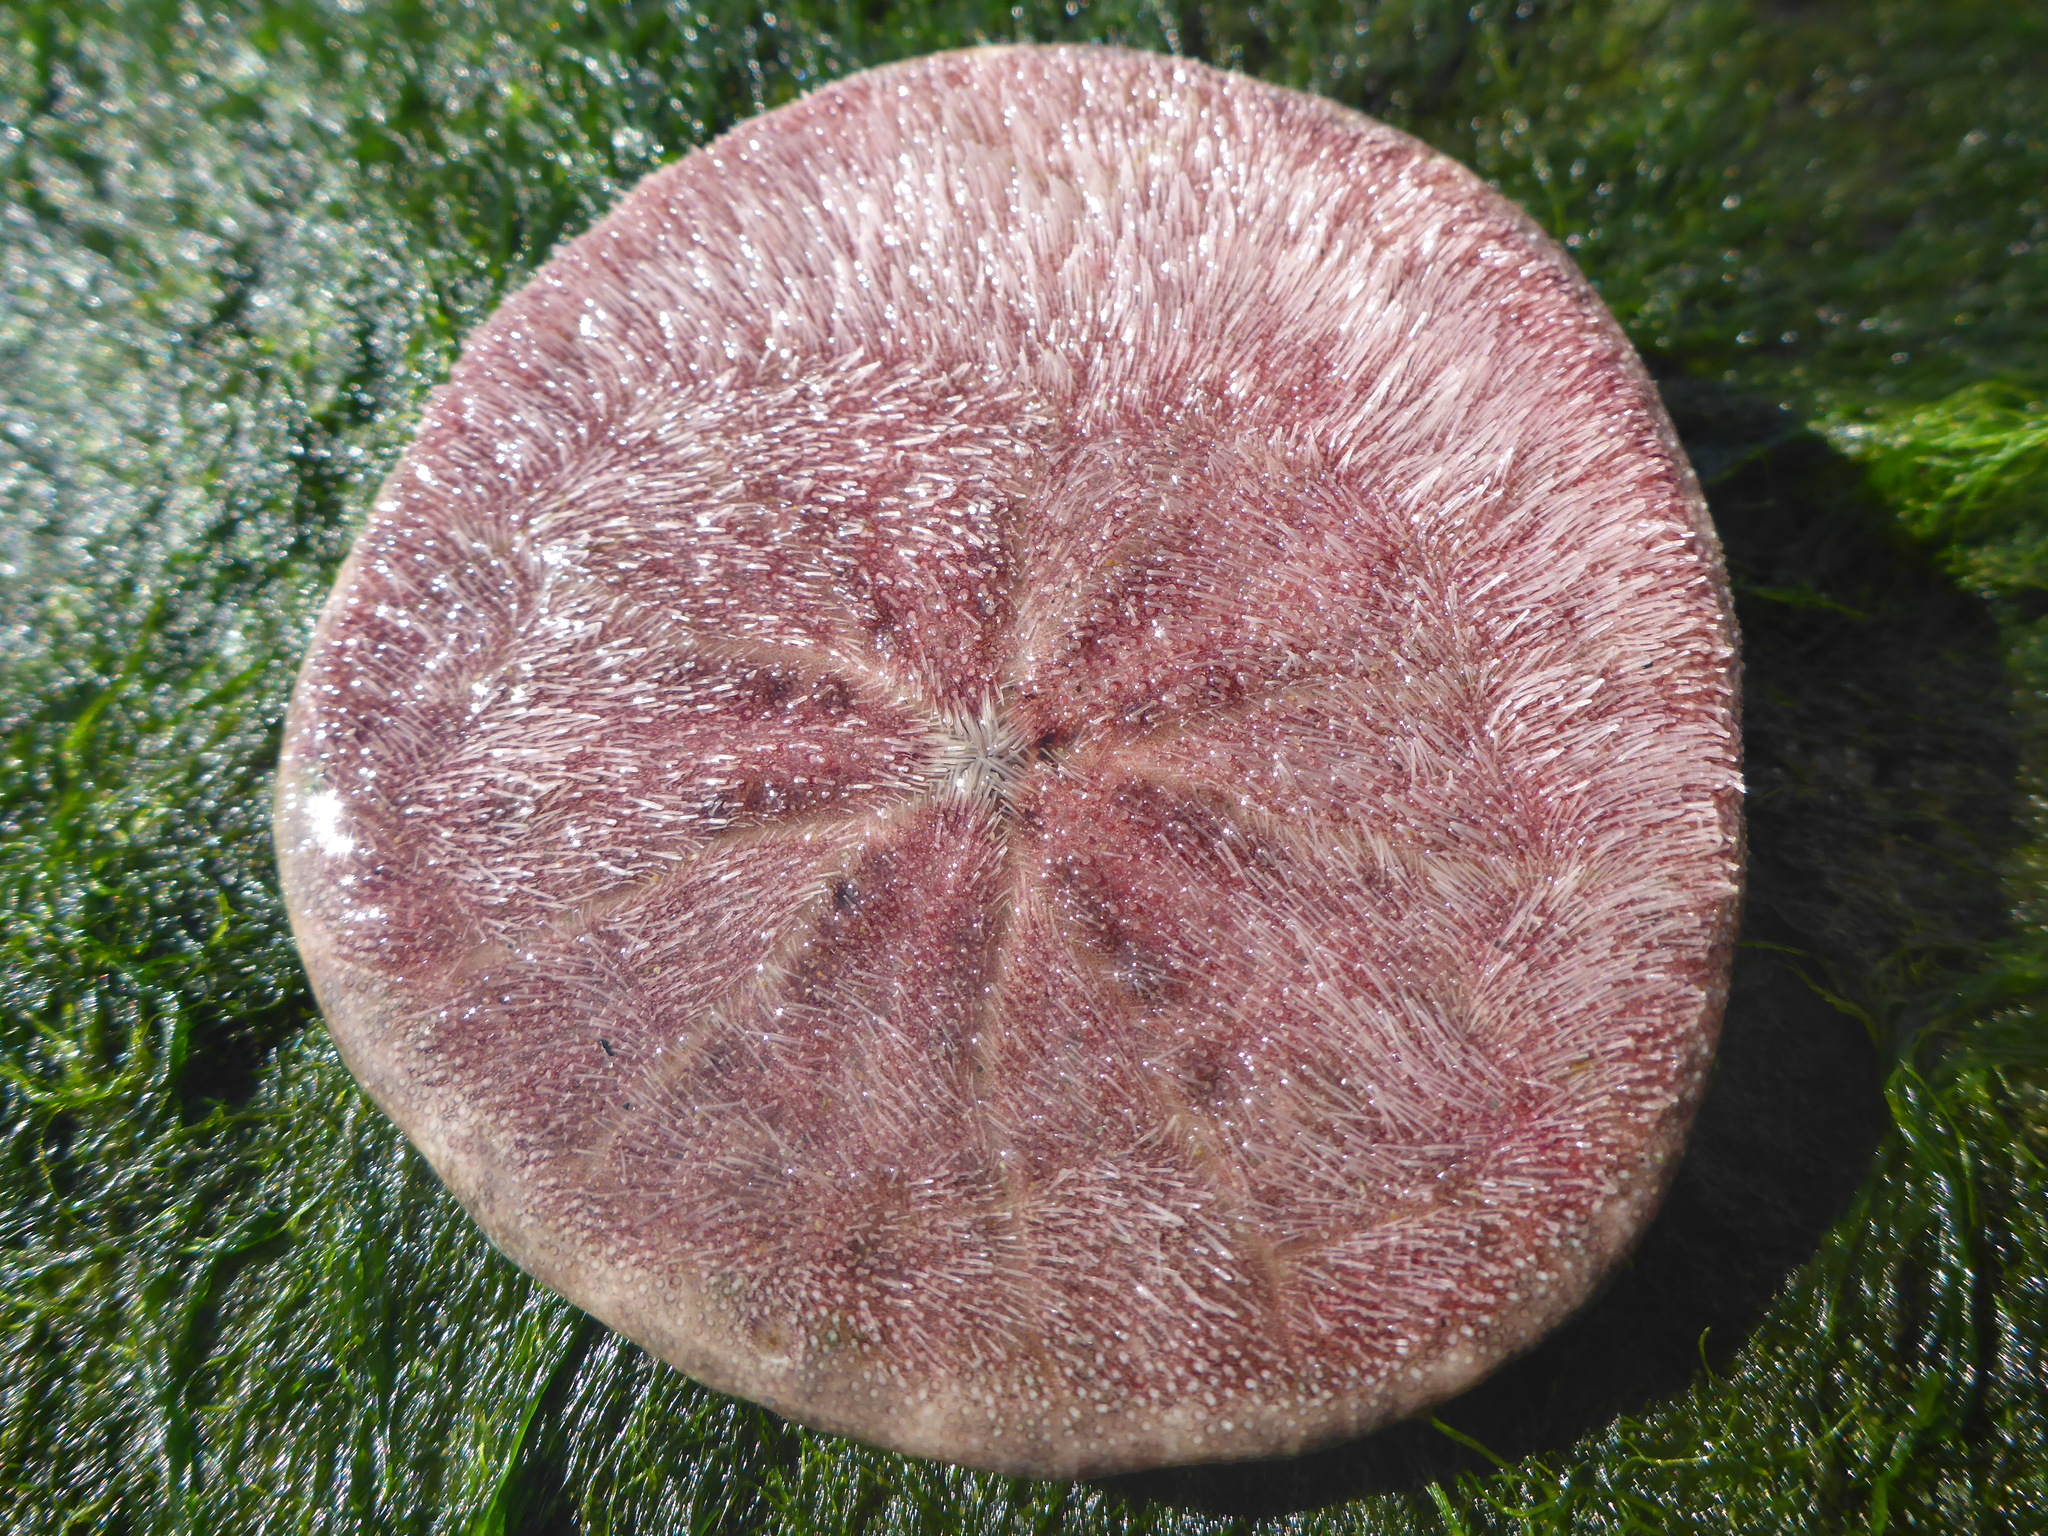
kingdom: Animalia
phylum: Echinodermata
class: Echinoidea
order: Echinolampadacea
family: Dendrasteridae
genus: Dendraster
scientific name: Dendraster excentricus
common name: Eccentric sand dollar sea urchin
